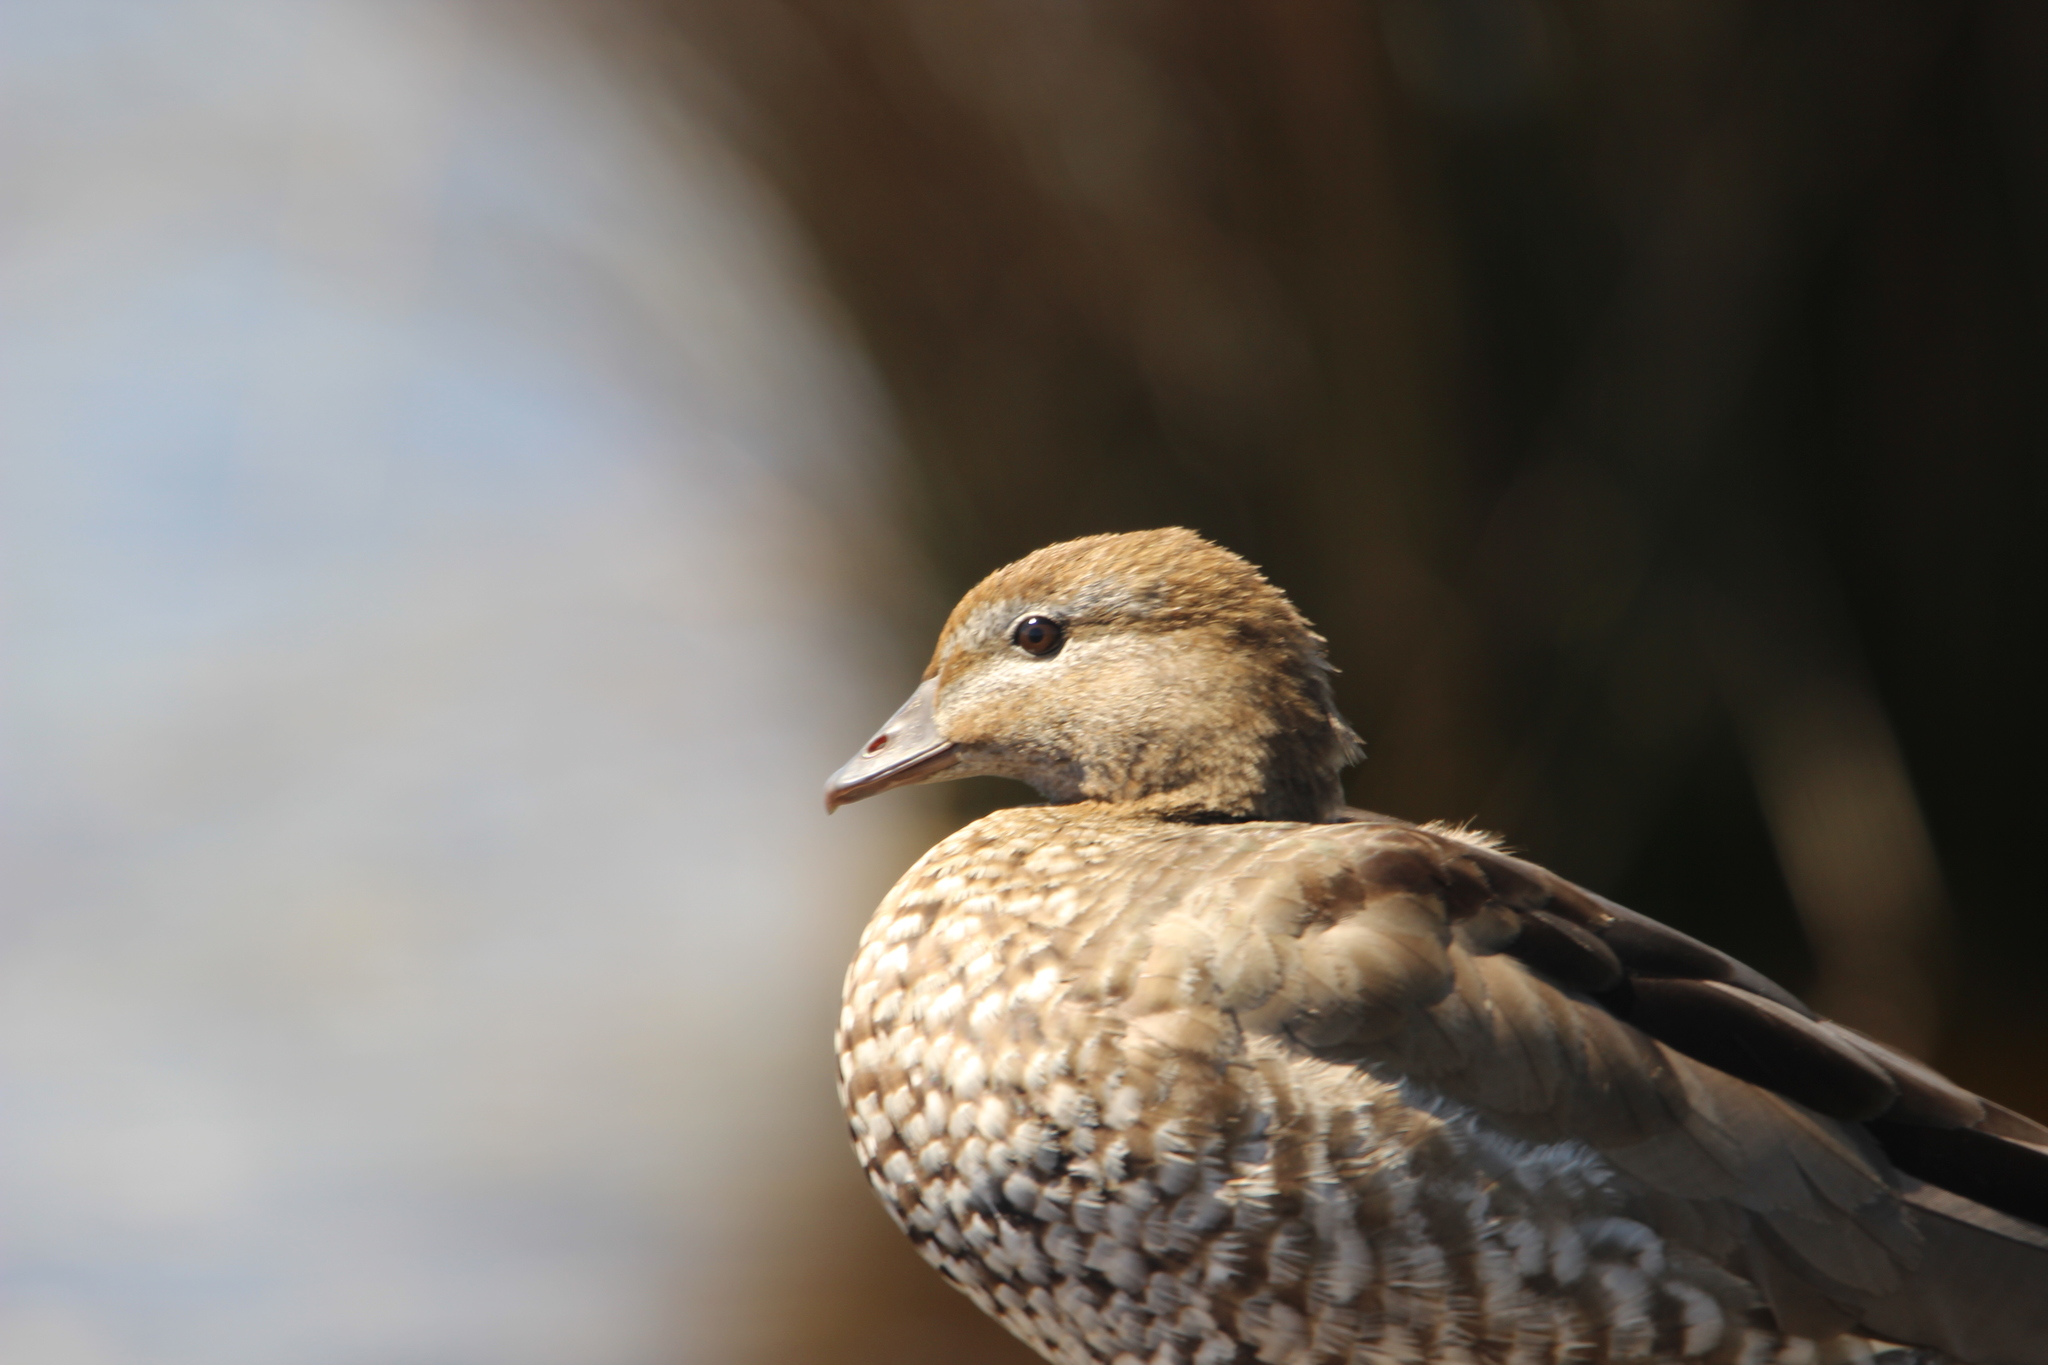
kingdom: Animalia
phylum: Chordata
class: Aves
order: Anseriformes
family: Anatidae
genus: Chenonetta
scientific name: Chenonetta jubata
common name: Maned duck
